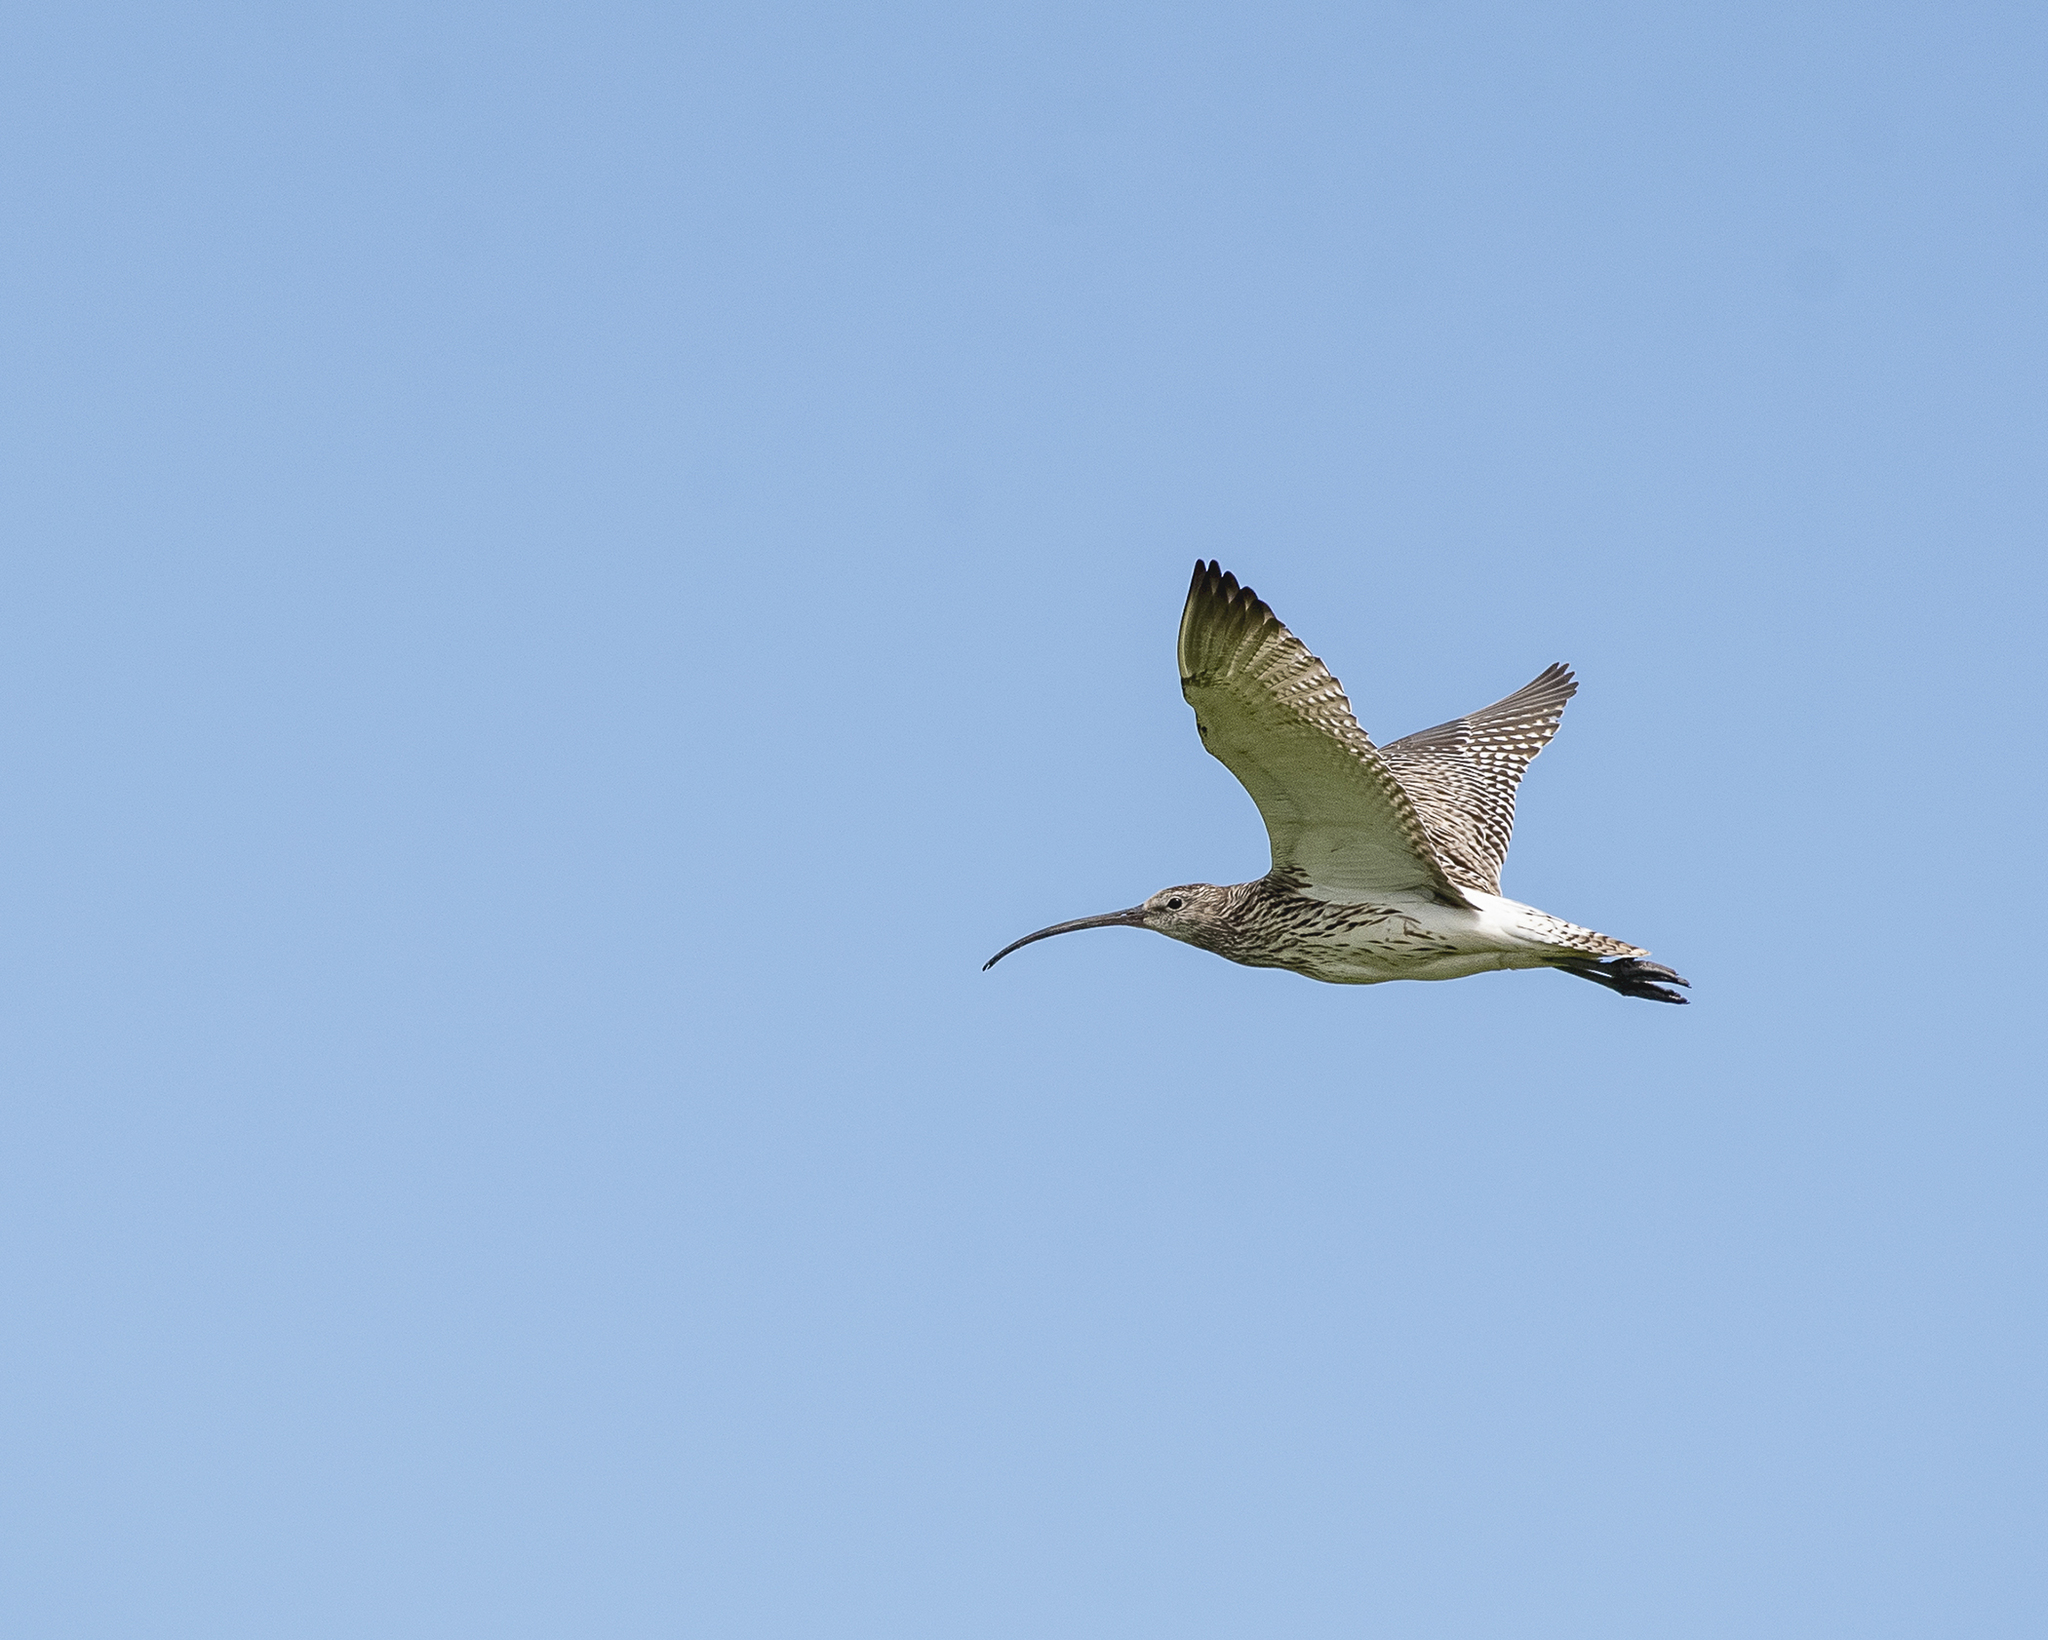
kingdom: Animalia
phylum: Chordata
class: Aves
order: Charadriiformes
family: Scolopacidae
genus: Numenius
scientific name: Numenius arquata
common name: Eurasian curlew
